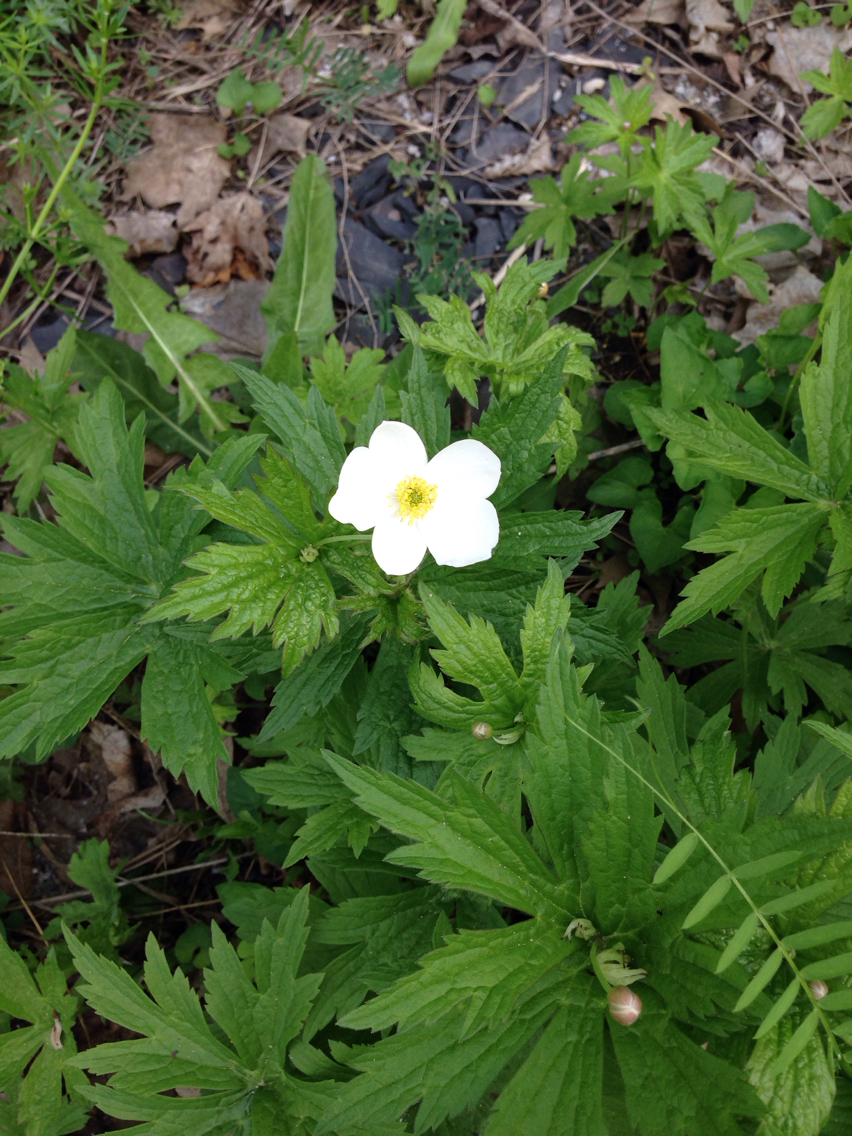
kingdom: Plantae
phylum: Tracheophyta
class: Magnoliopsida
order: Ranunculales
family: Ranunculaceae
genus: Anemonastrum
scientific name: Anemonastrum canadense
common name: Canada anemone
